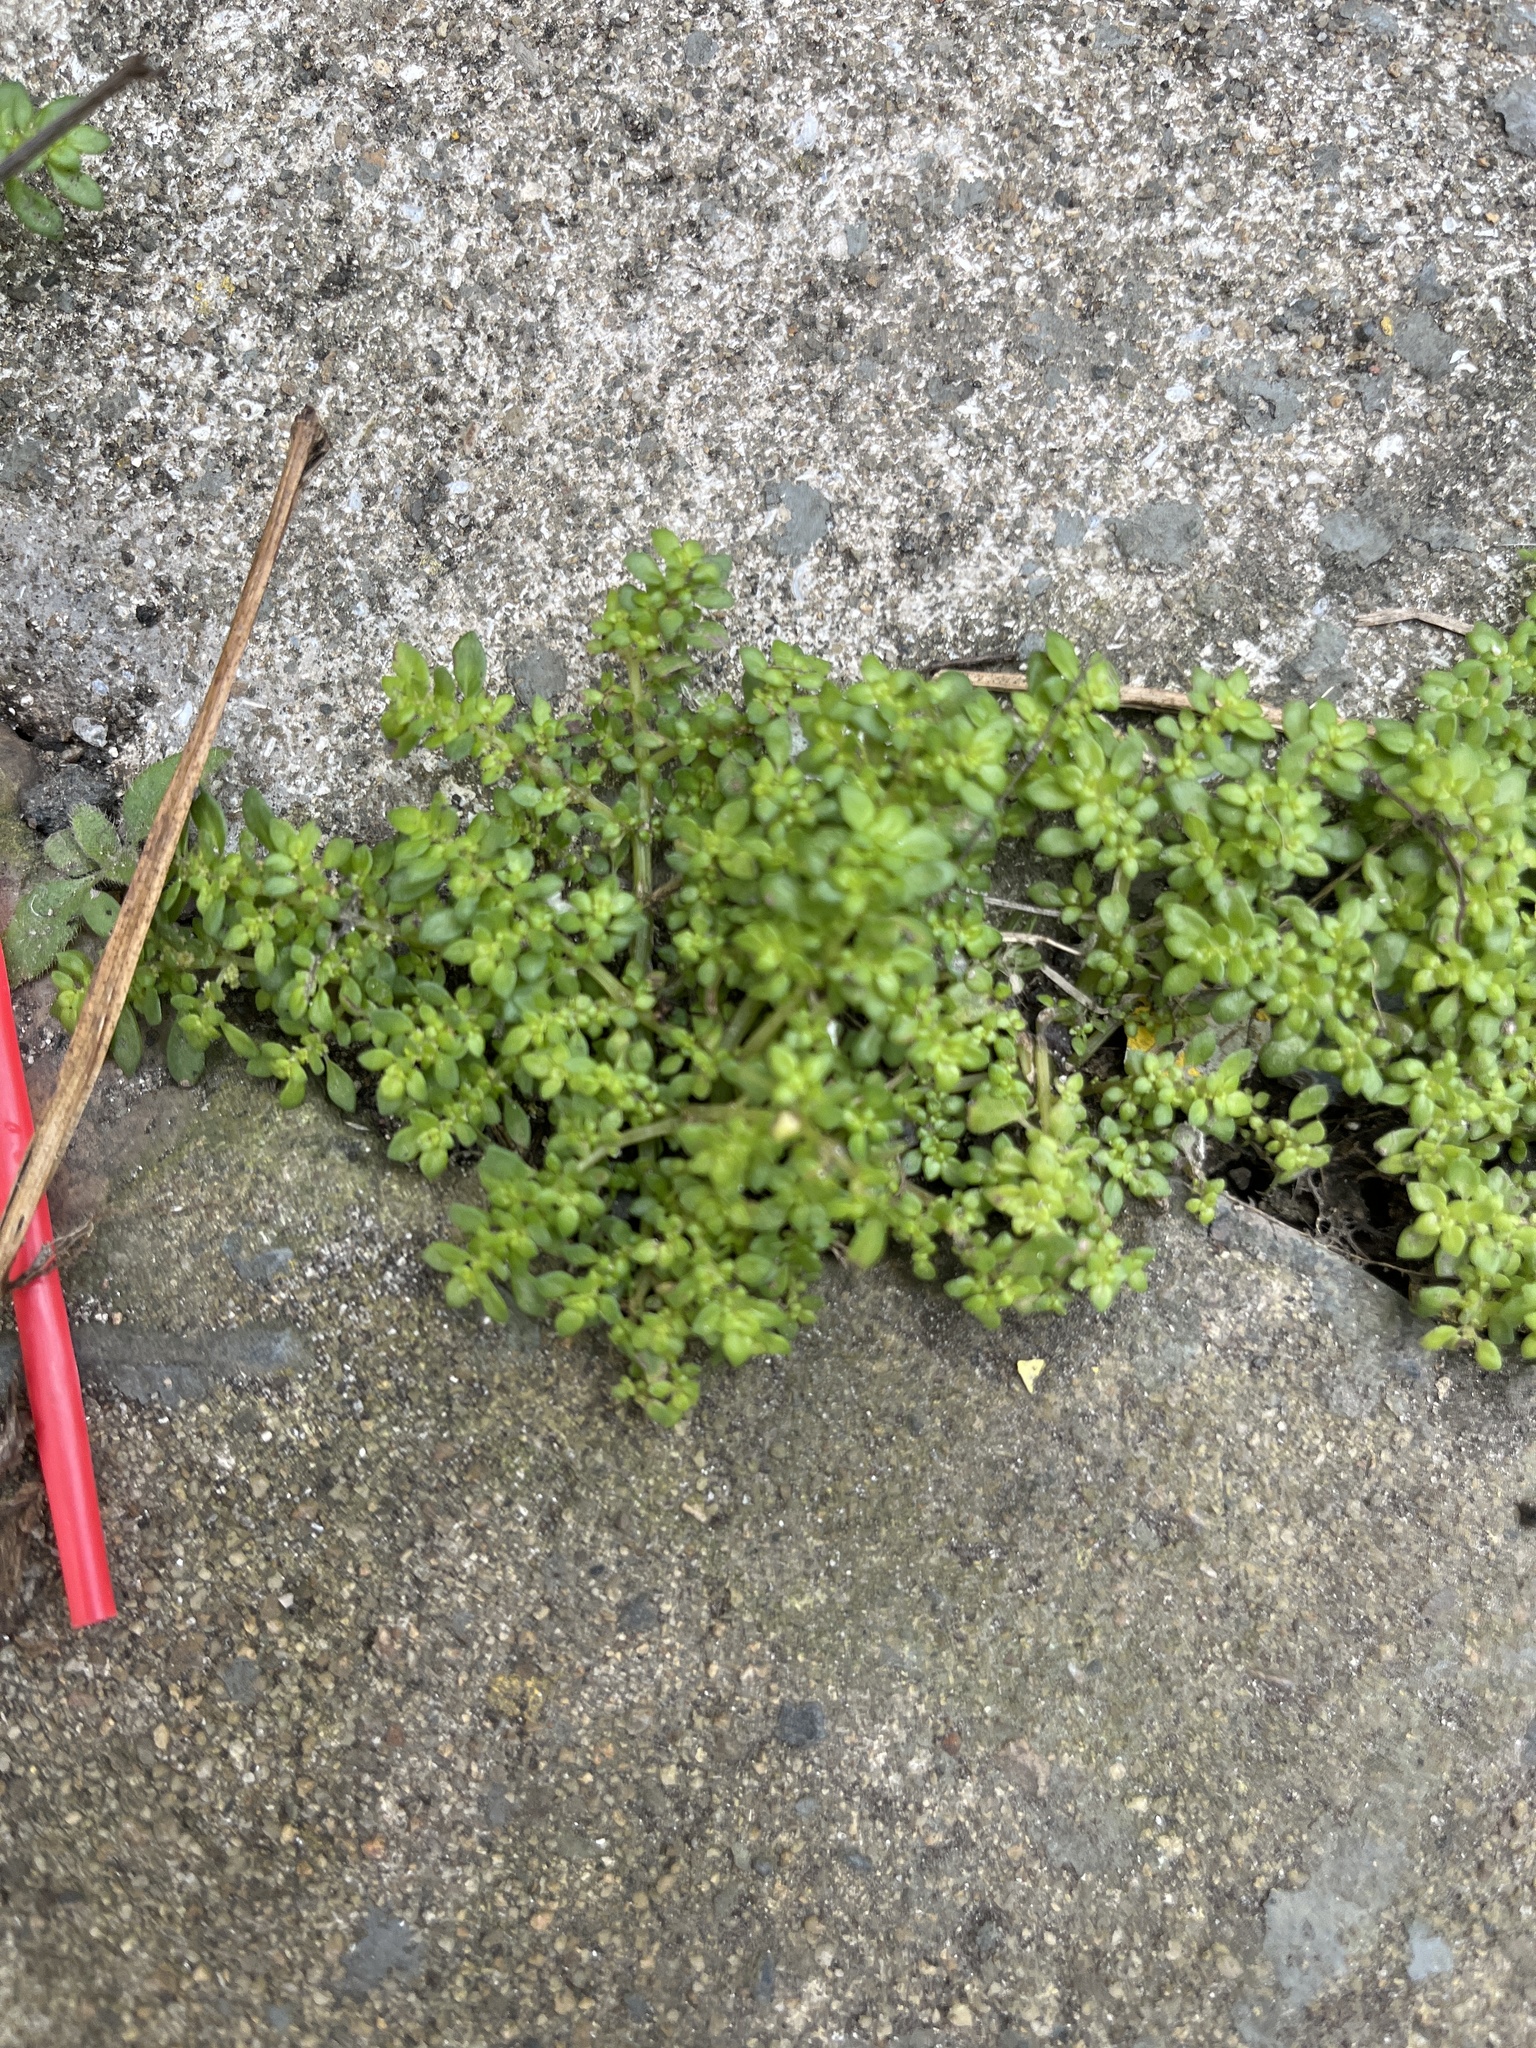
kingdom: Plantae
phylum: Tracheophyta
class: Magnoliopsida
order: Rosales
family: Urticaceae
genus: Pilea
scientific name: Pilea microphylla
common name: Artillery-plant
